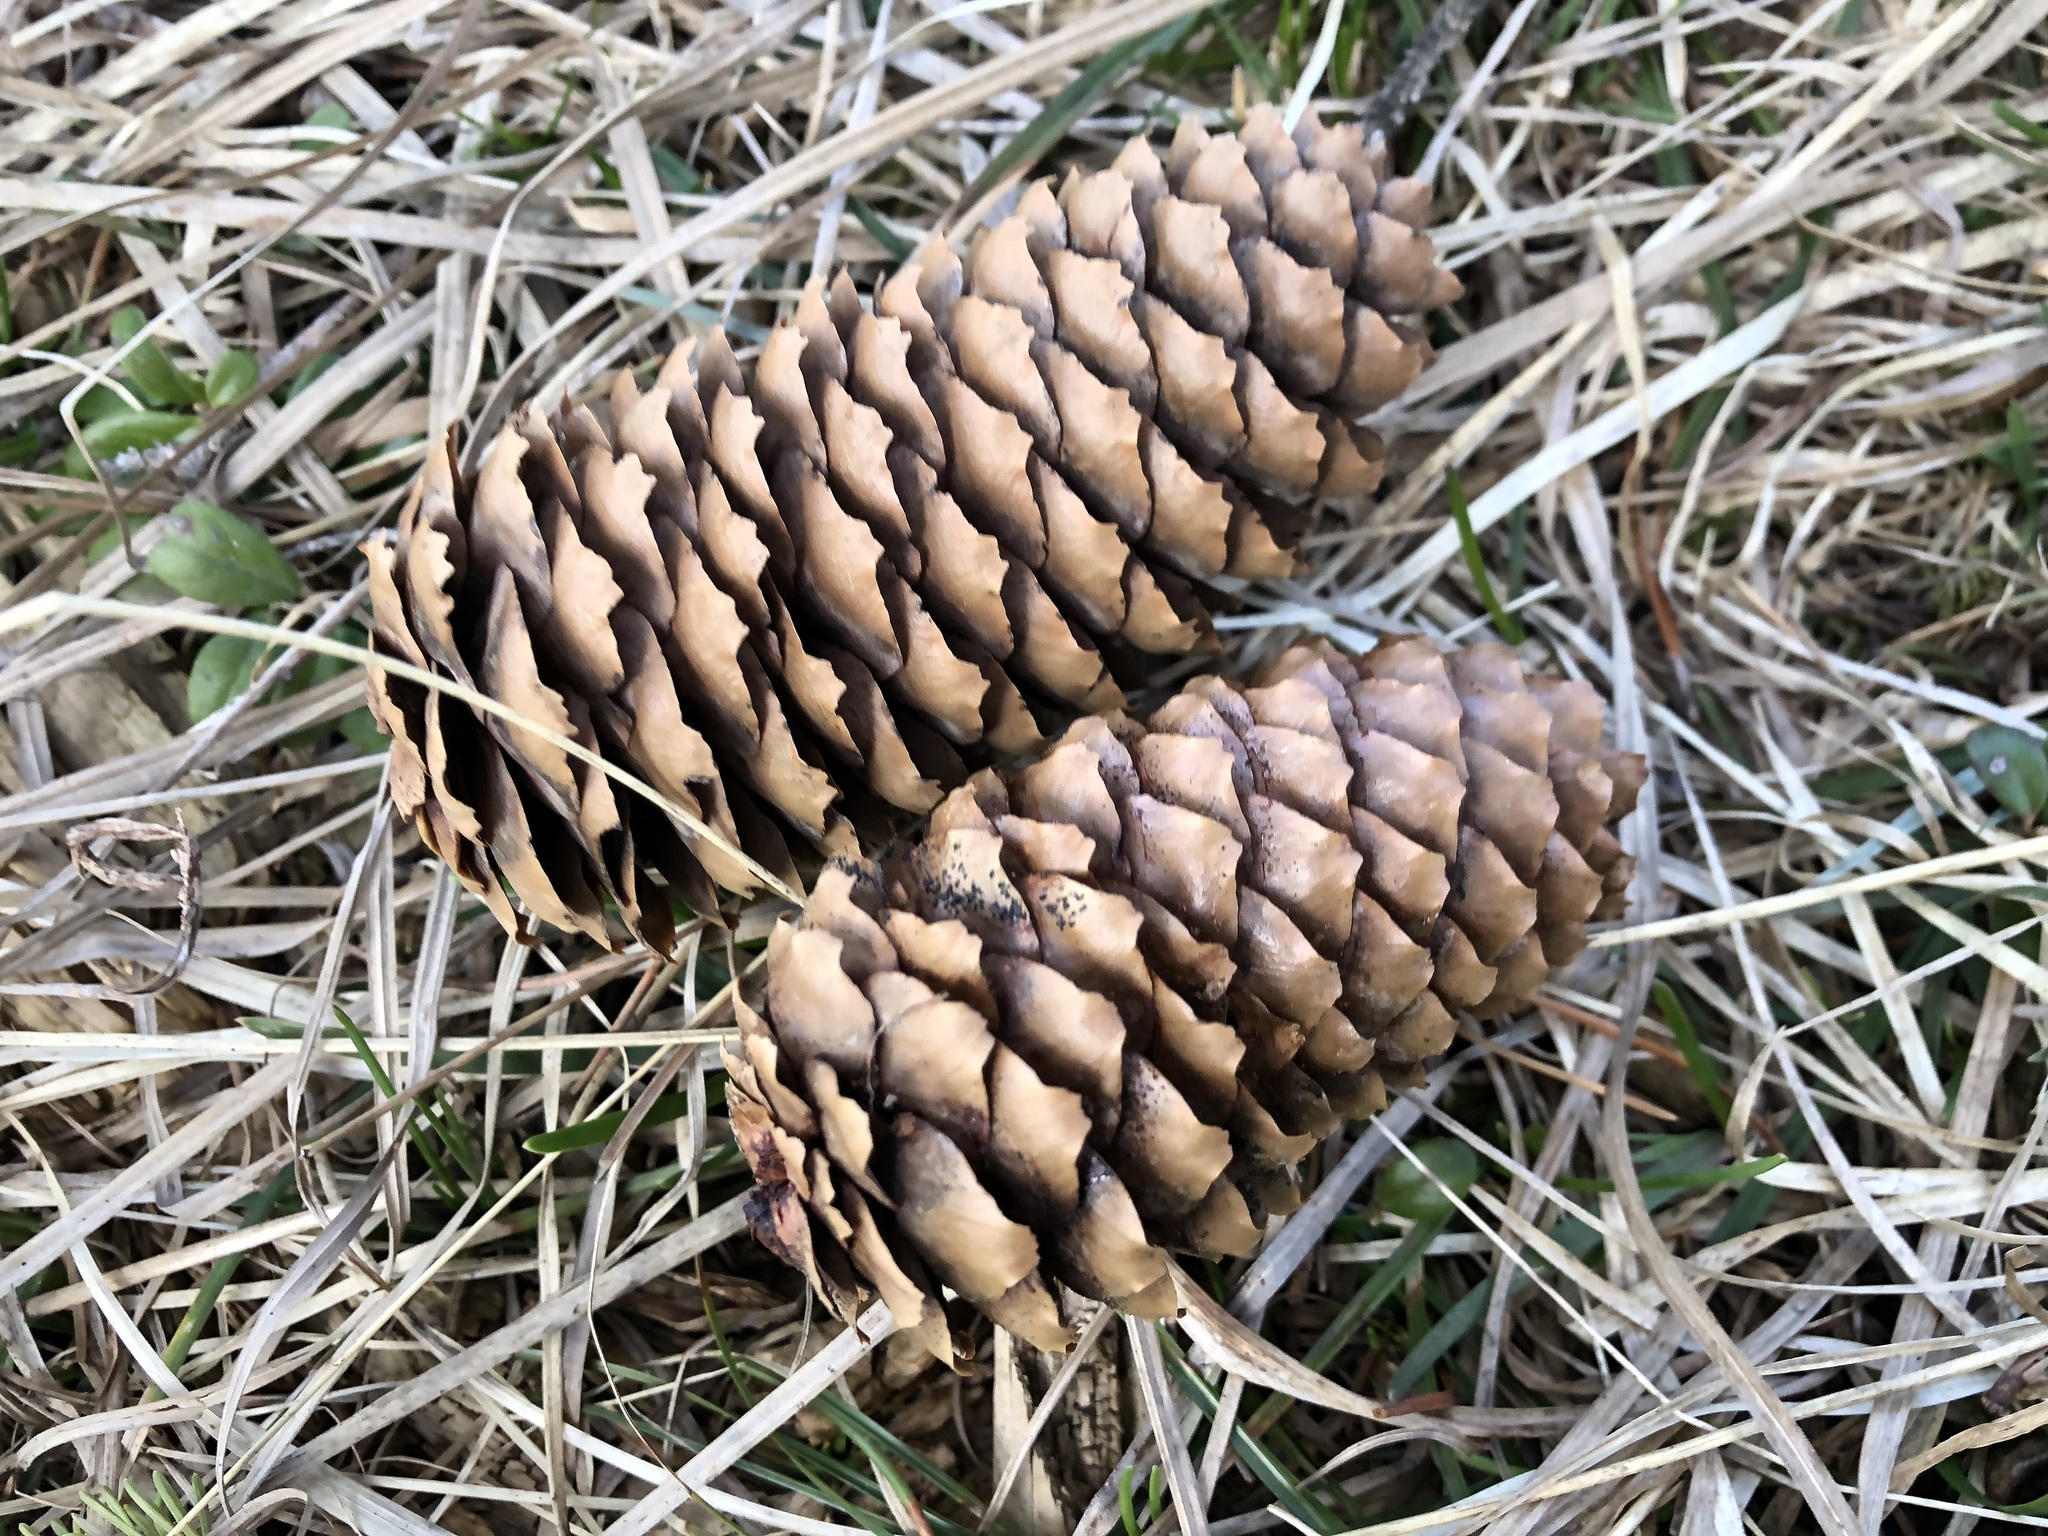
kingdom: Plantae
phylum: Tracheophyta
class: Pinopsida
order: Pinales
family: Pinaceae
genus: Picea
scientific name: Picea abies
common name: Norway spruce
